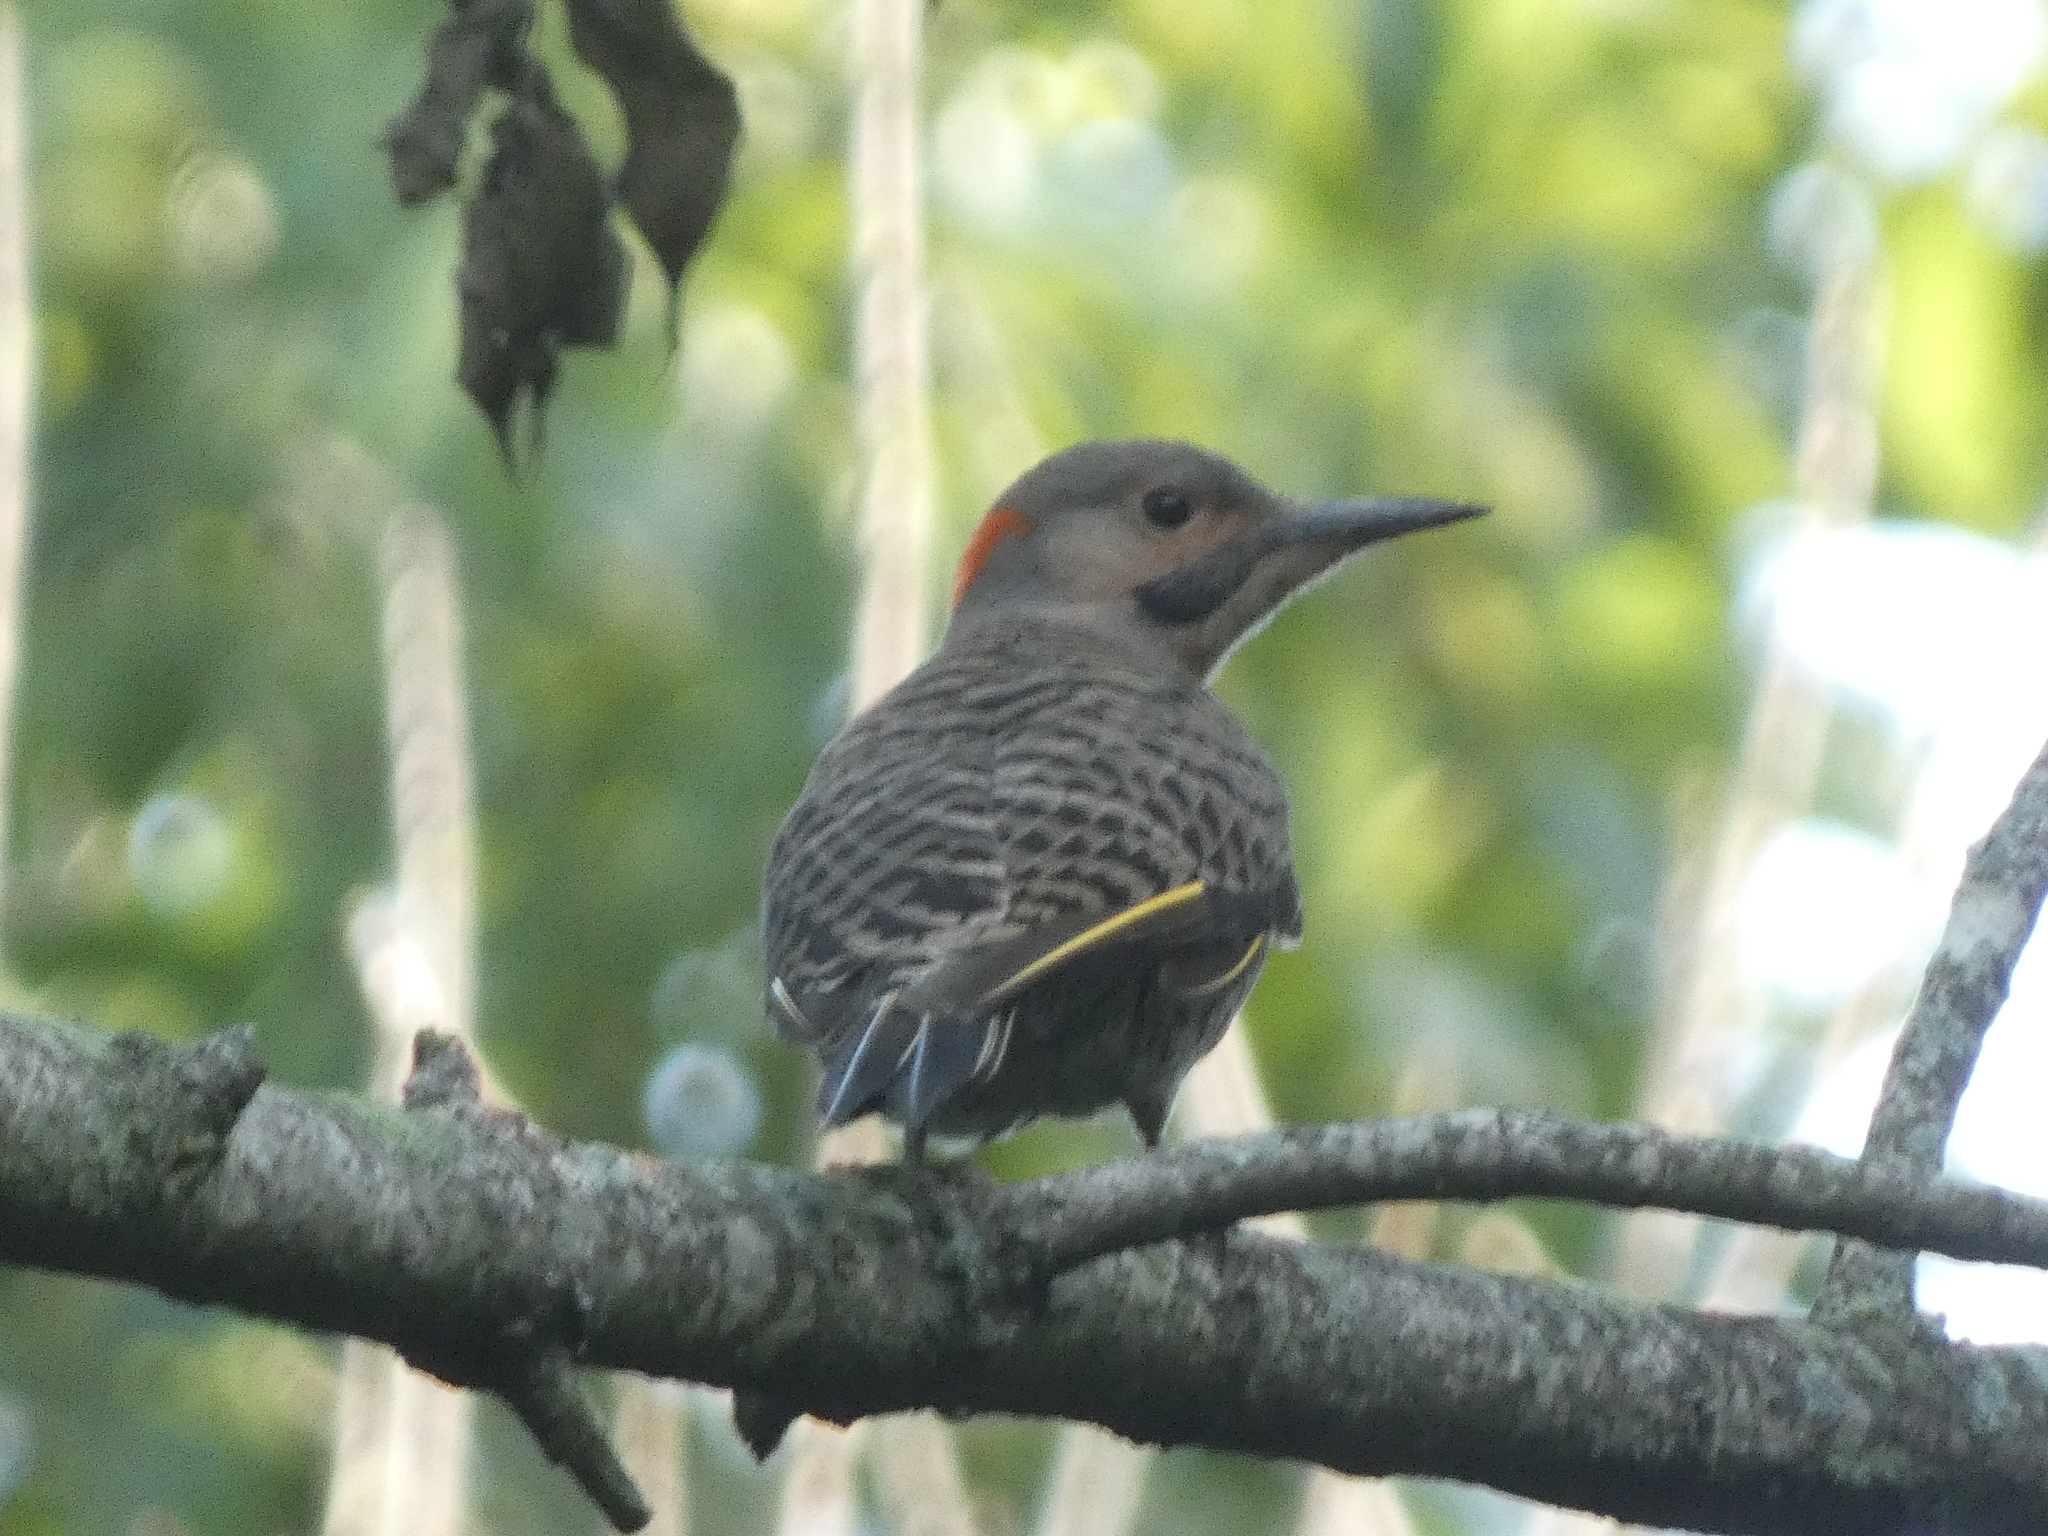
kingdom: Animalia
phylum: Chordata
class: Aves
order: Piciformes
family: Picidae
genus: Colaptes
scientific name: Colaptes auratus
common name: Northern flicker
